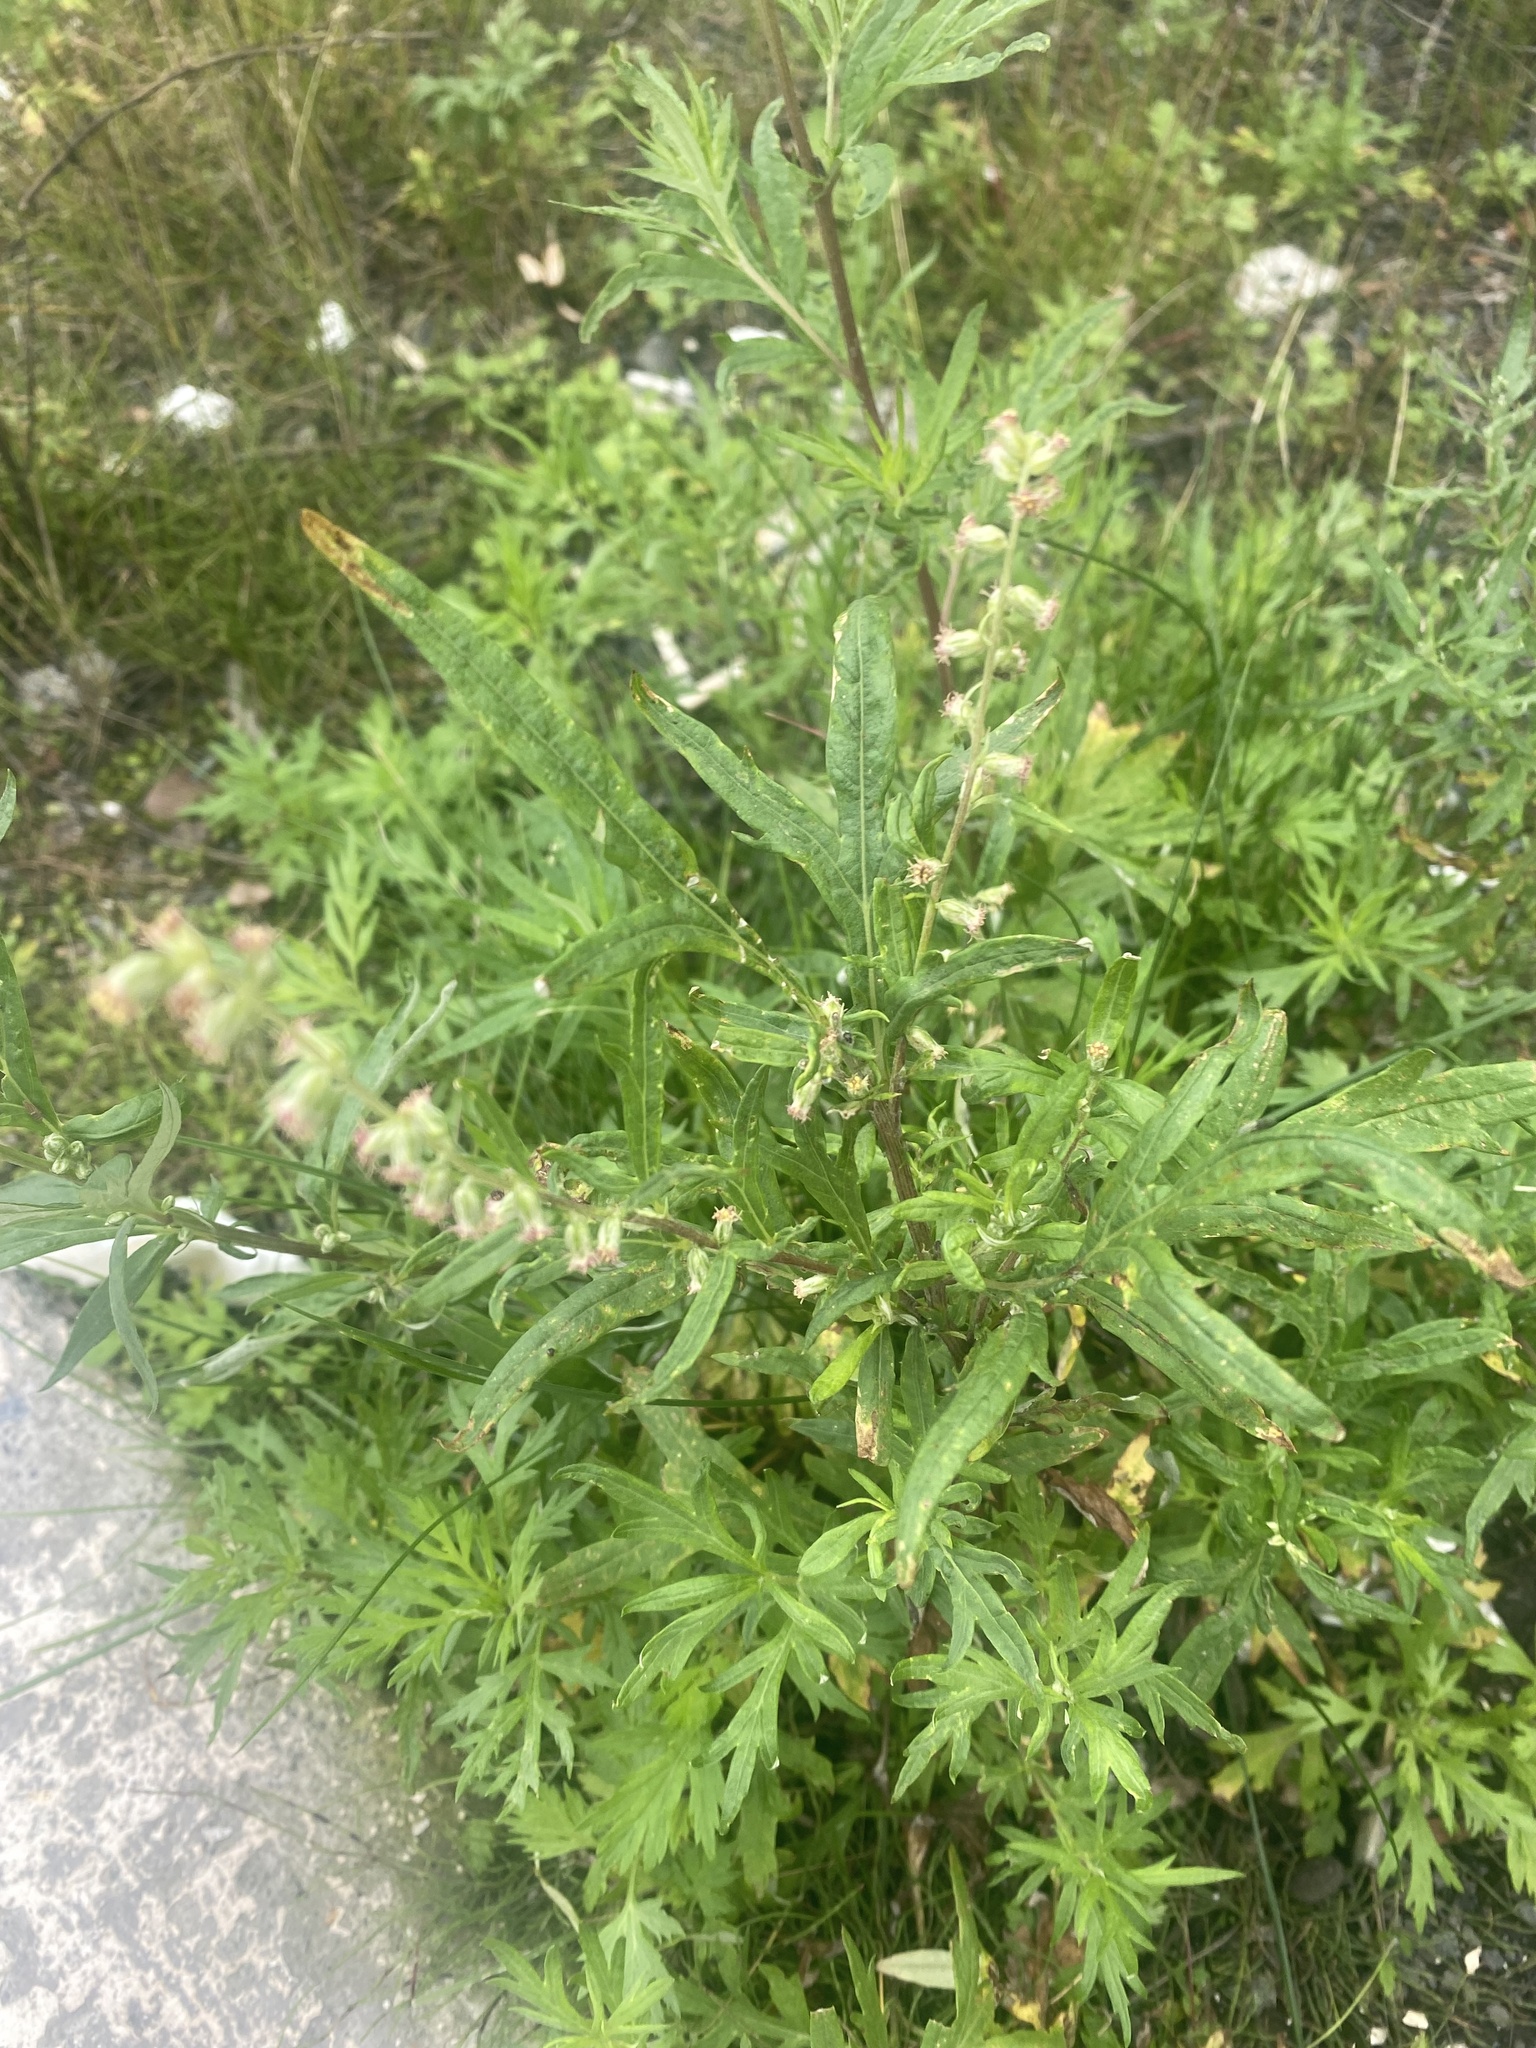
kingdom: Plantae
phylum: Tracheophyta
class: Magnoliopsida
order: Asterales
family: Asteraceae
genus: Artemisia
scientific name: Artemisia tilesii
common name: Aleutian mugwort
